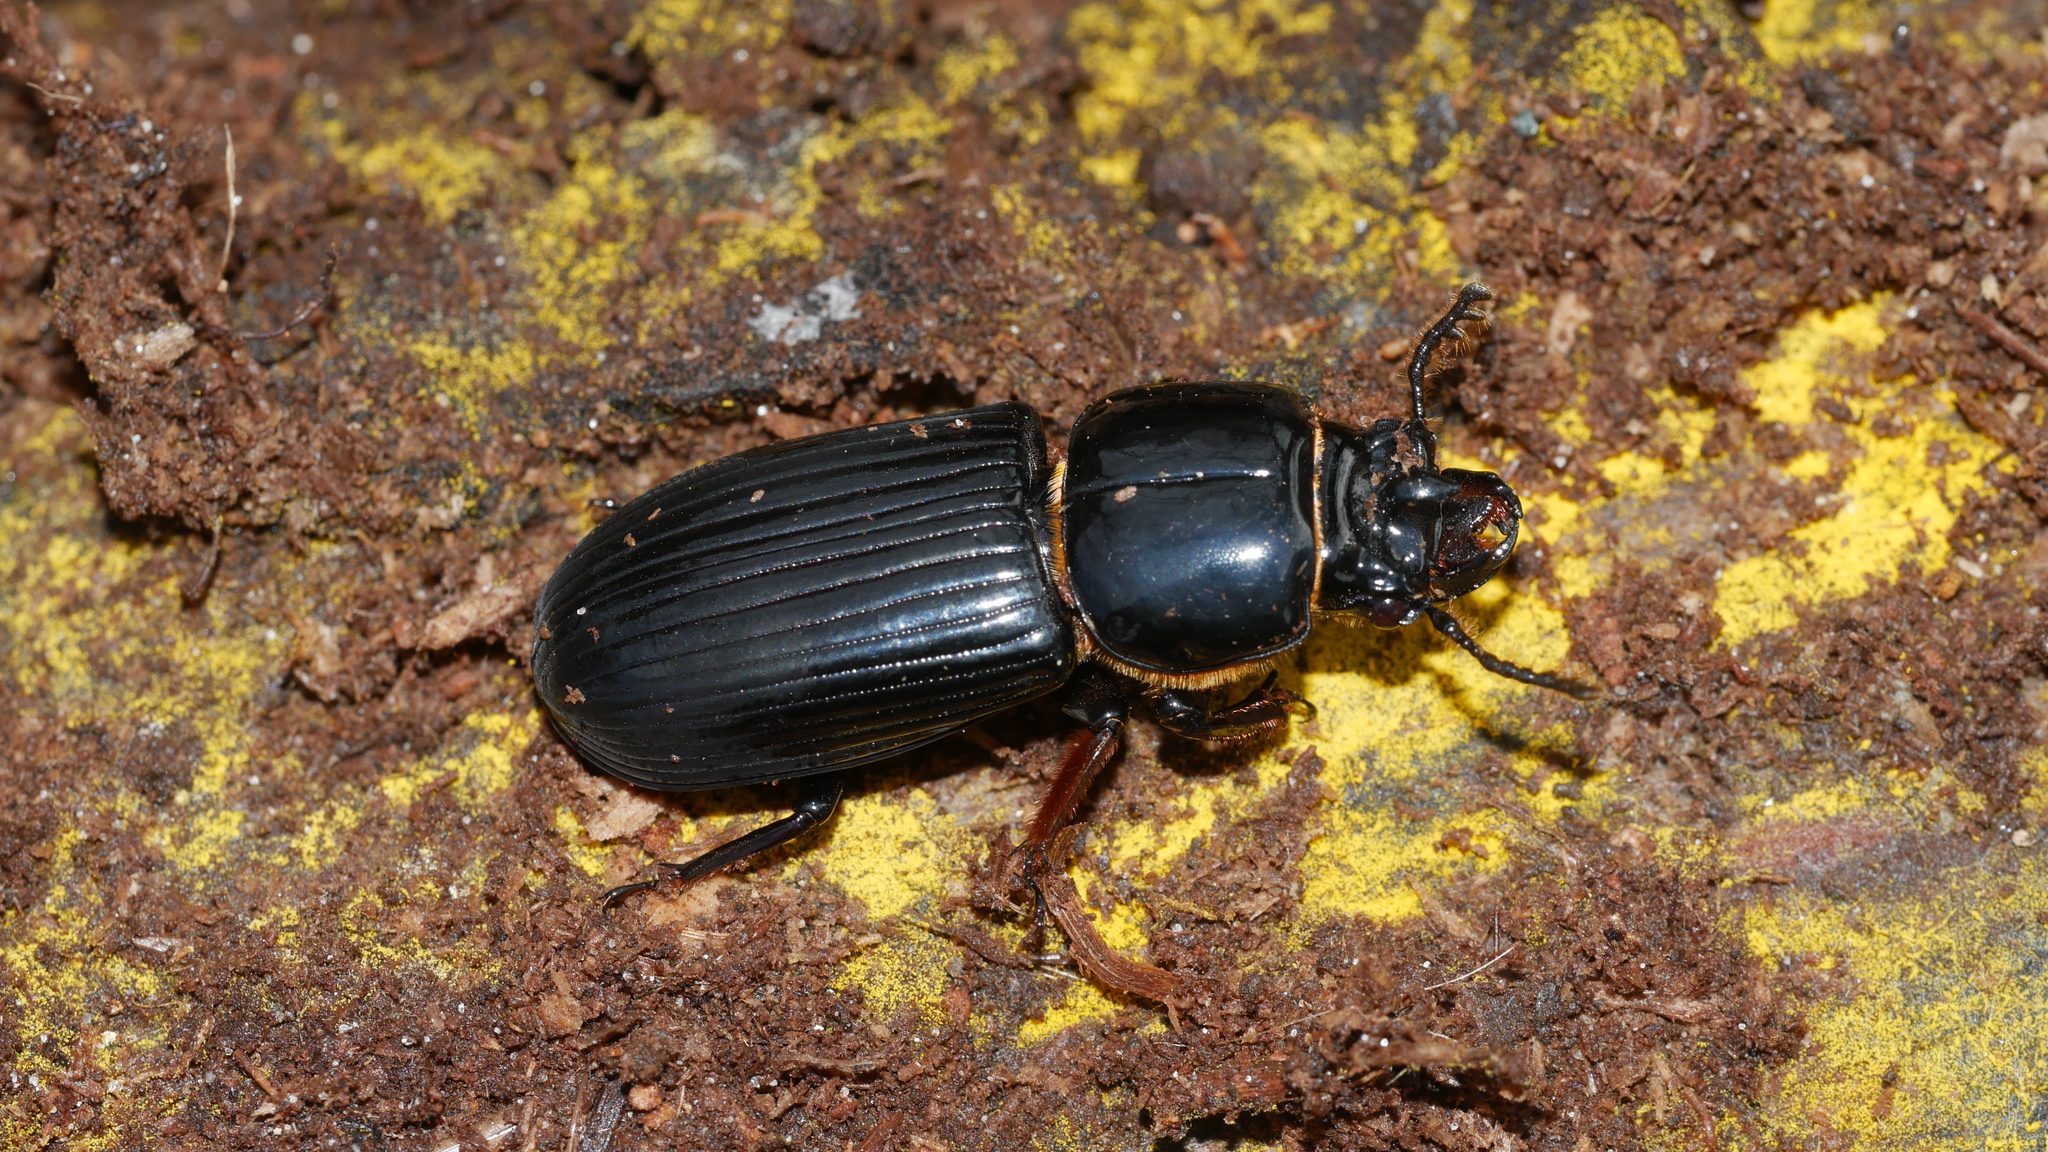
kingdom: Animalia
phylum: Arthropoda
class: Insecta
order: Coleoptera
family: Passalidae
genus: Odontotaenius
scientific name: Odontotaenius disjunctus
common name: Patent leather beetle
